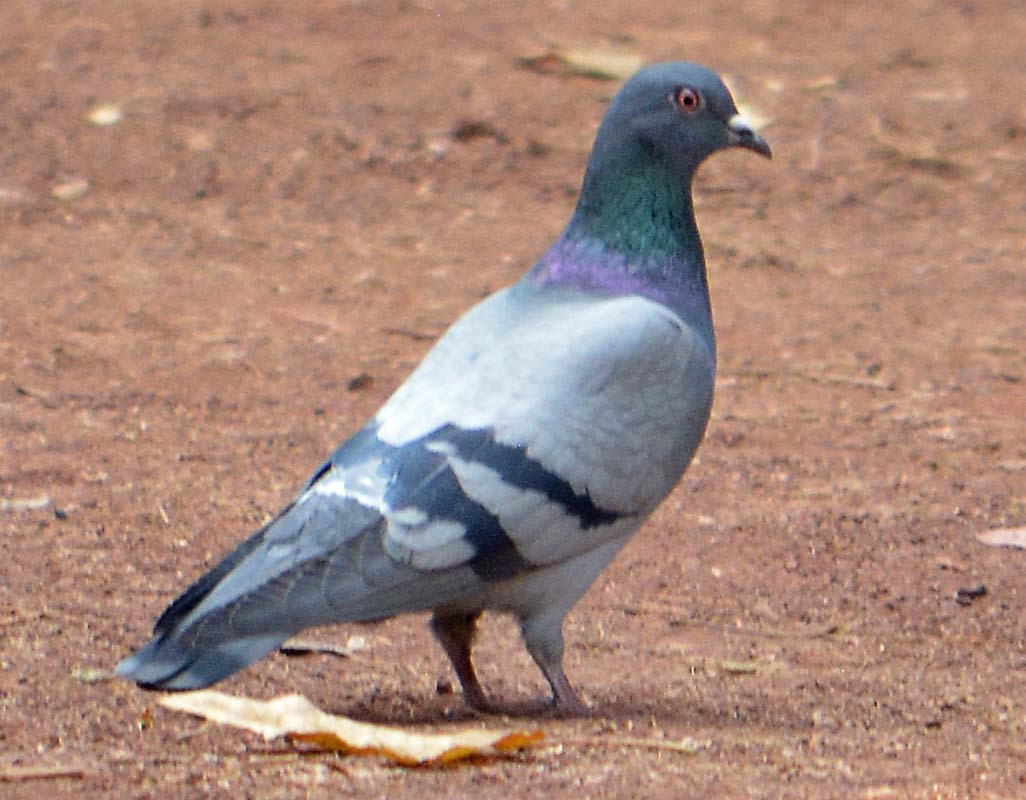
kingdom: Animalia
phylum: Chordata
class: Aves
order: Columbiformes
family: Columbidae
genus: Columba
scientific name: Columba livia
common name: Rock pigeon
